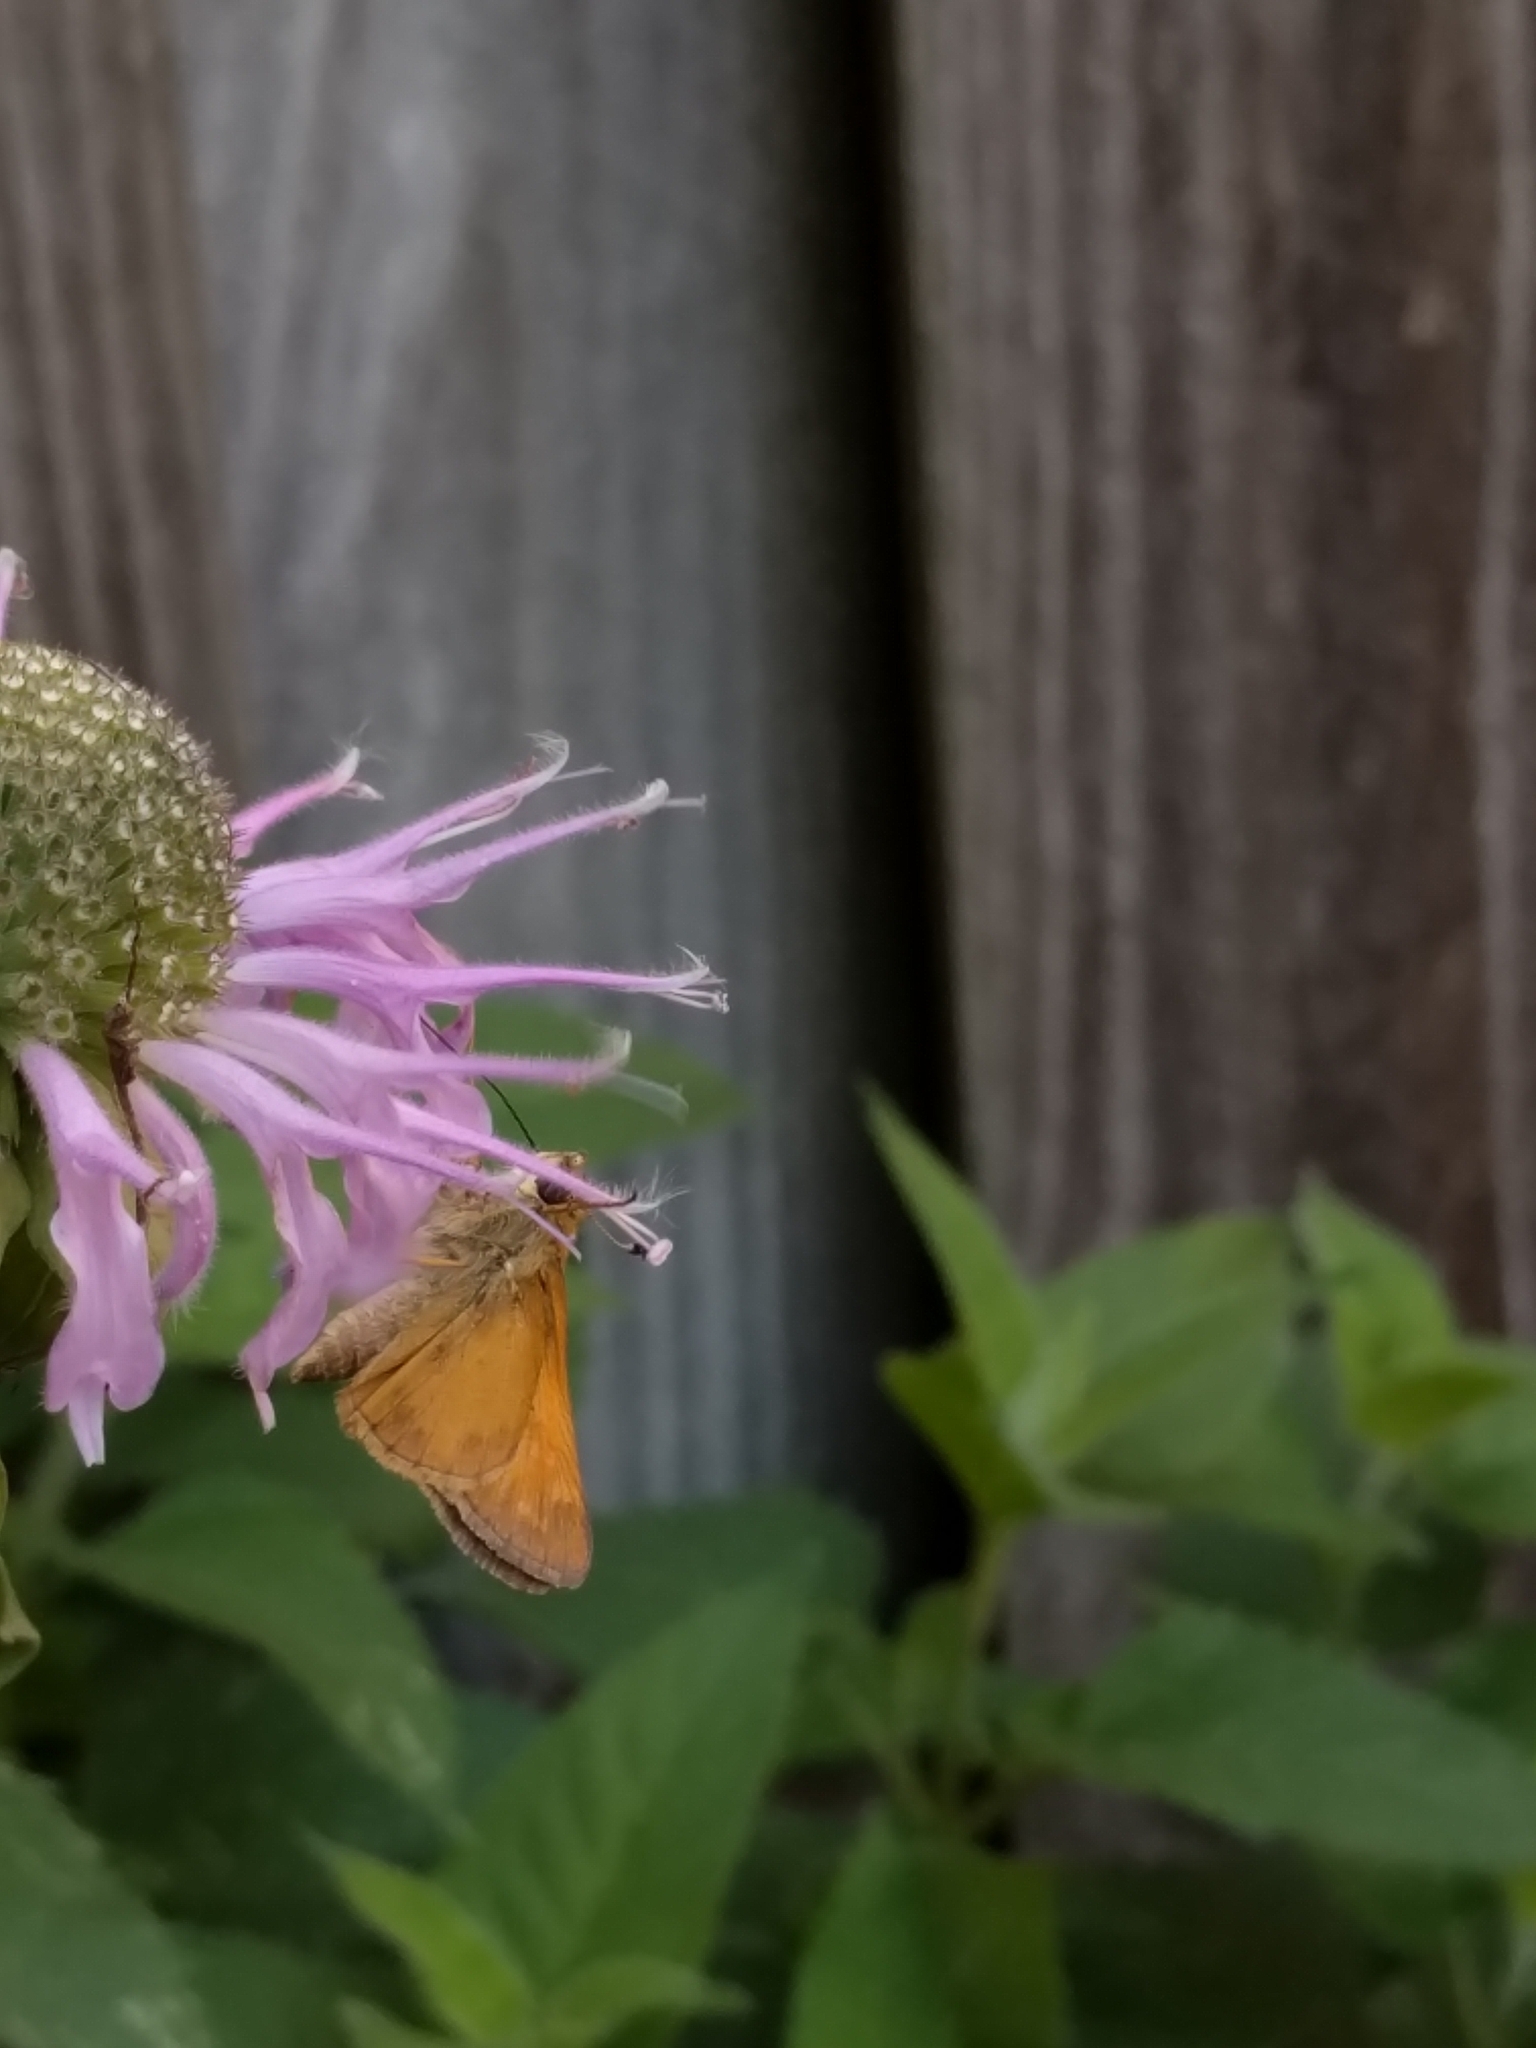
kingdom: Animalia
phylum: Arthropoda
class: Insecta
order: Lepidoptera
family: Hesperiidae
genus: Atalopedes
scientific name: Atalopedes
